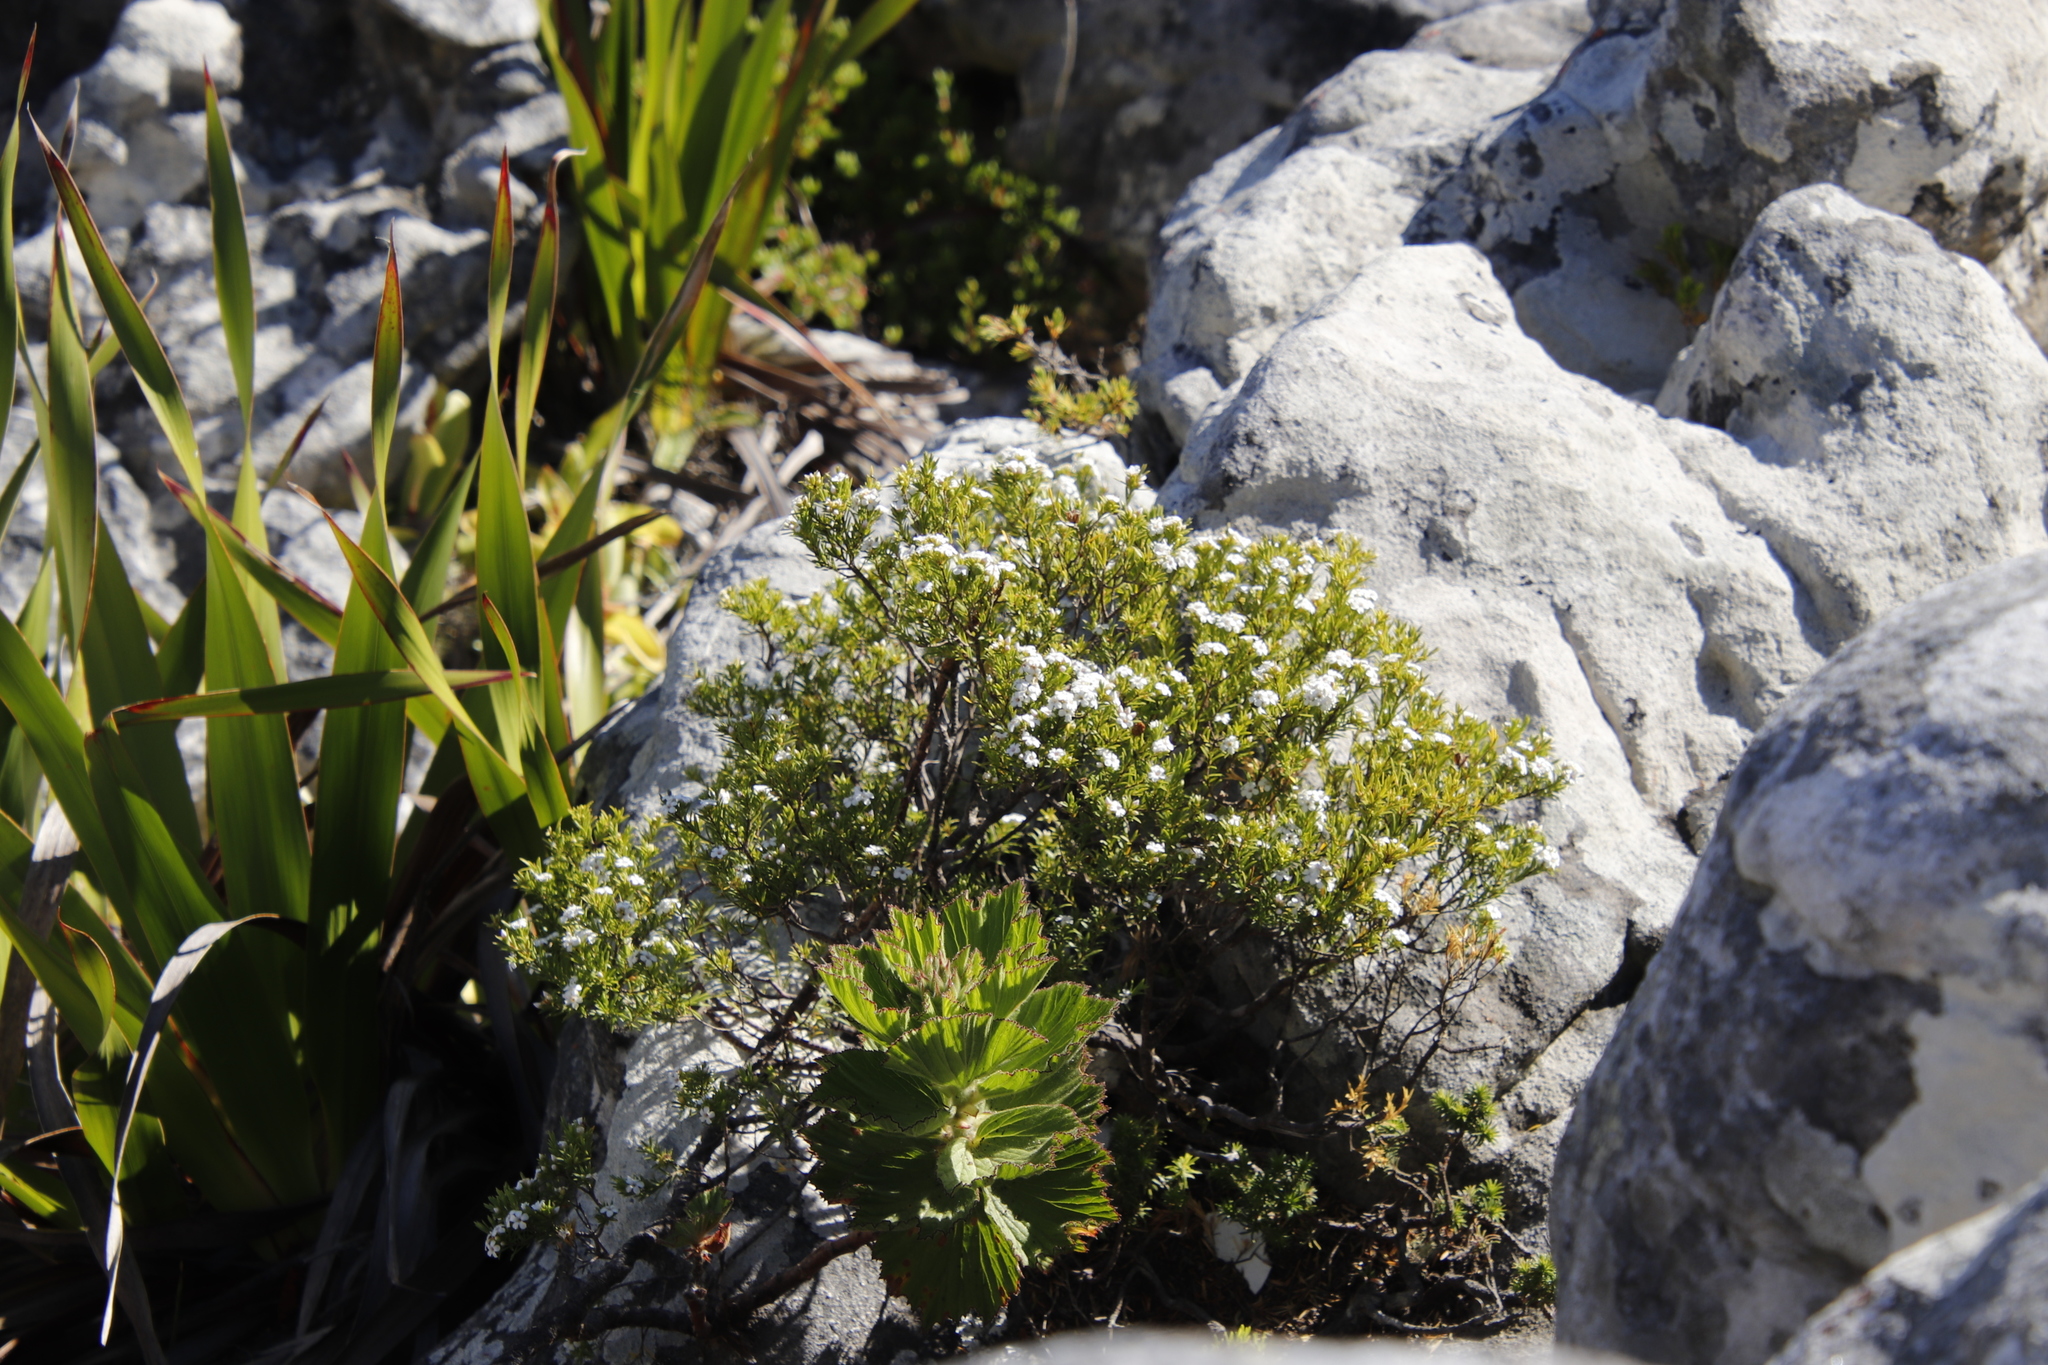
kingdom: Plantae
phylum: Tracheophyta
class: Magnoliopsida
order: Sapindales
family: Rutaceae
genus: Coleonema
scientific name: Coleonema album
